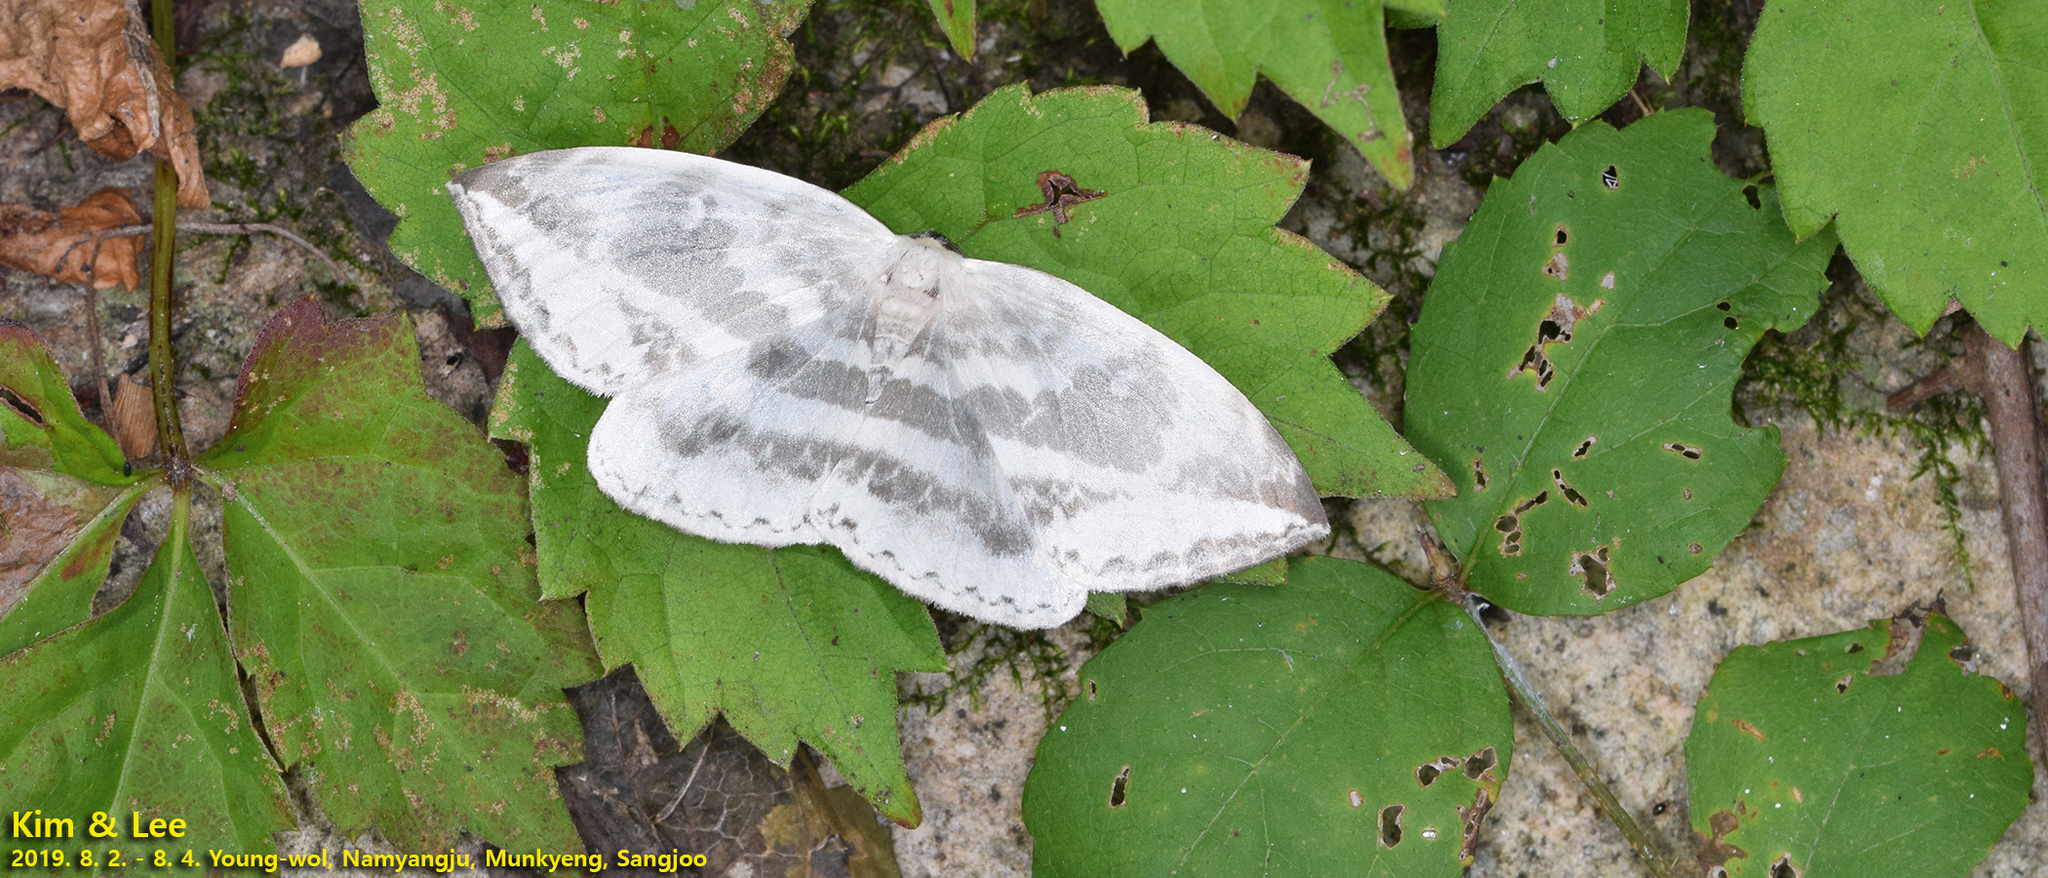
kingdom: Animalia
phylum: Arthropoda
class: Insecta
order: Lepidoptera
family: Drepanidae
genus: Cyclidia
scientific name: Cyclidia substigmaria
